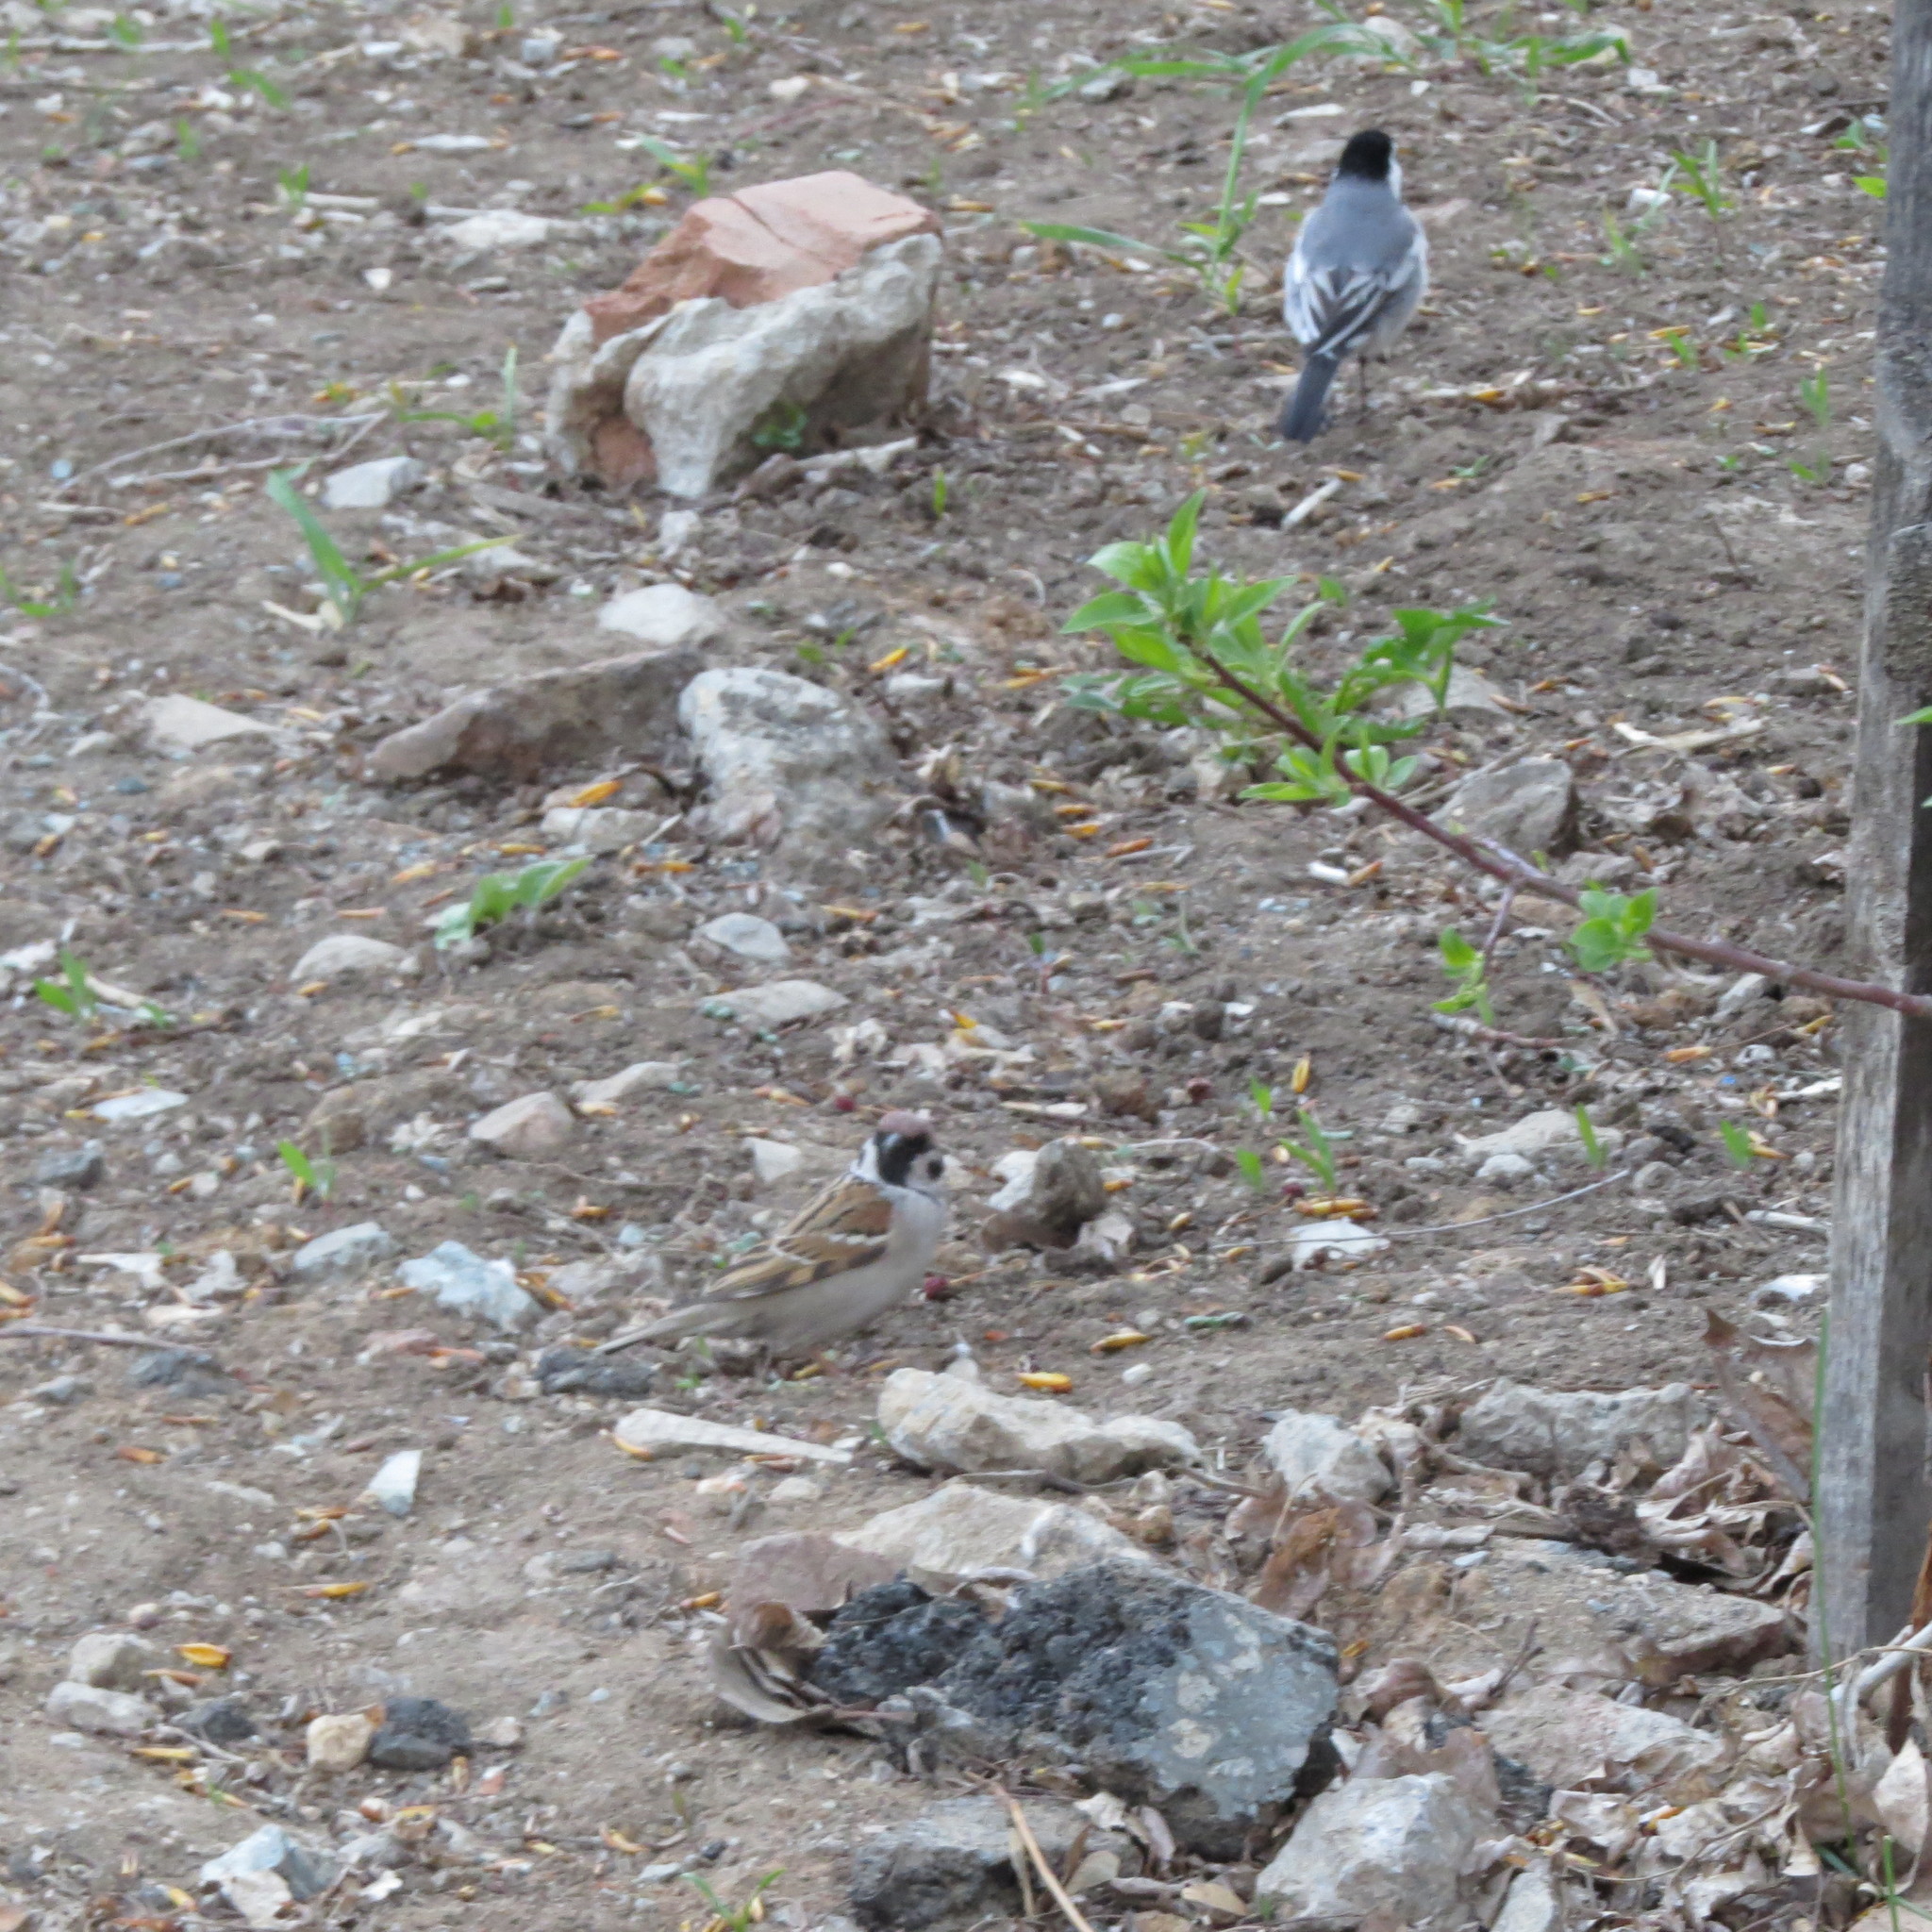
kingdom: Animalia
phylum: Chordata
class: Aves
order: Passeriformes
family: Motacillidae
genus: Motacilla
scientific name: Motacilla alba
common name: White wagtail
